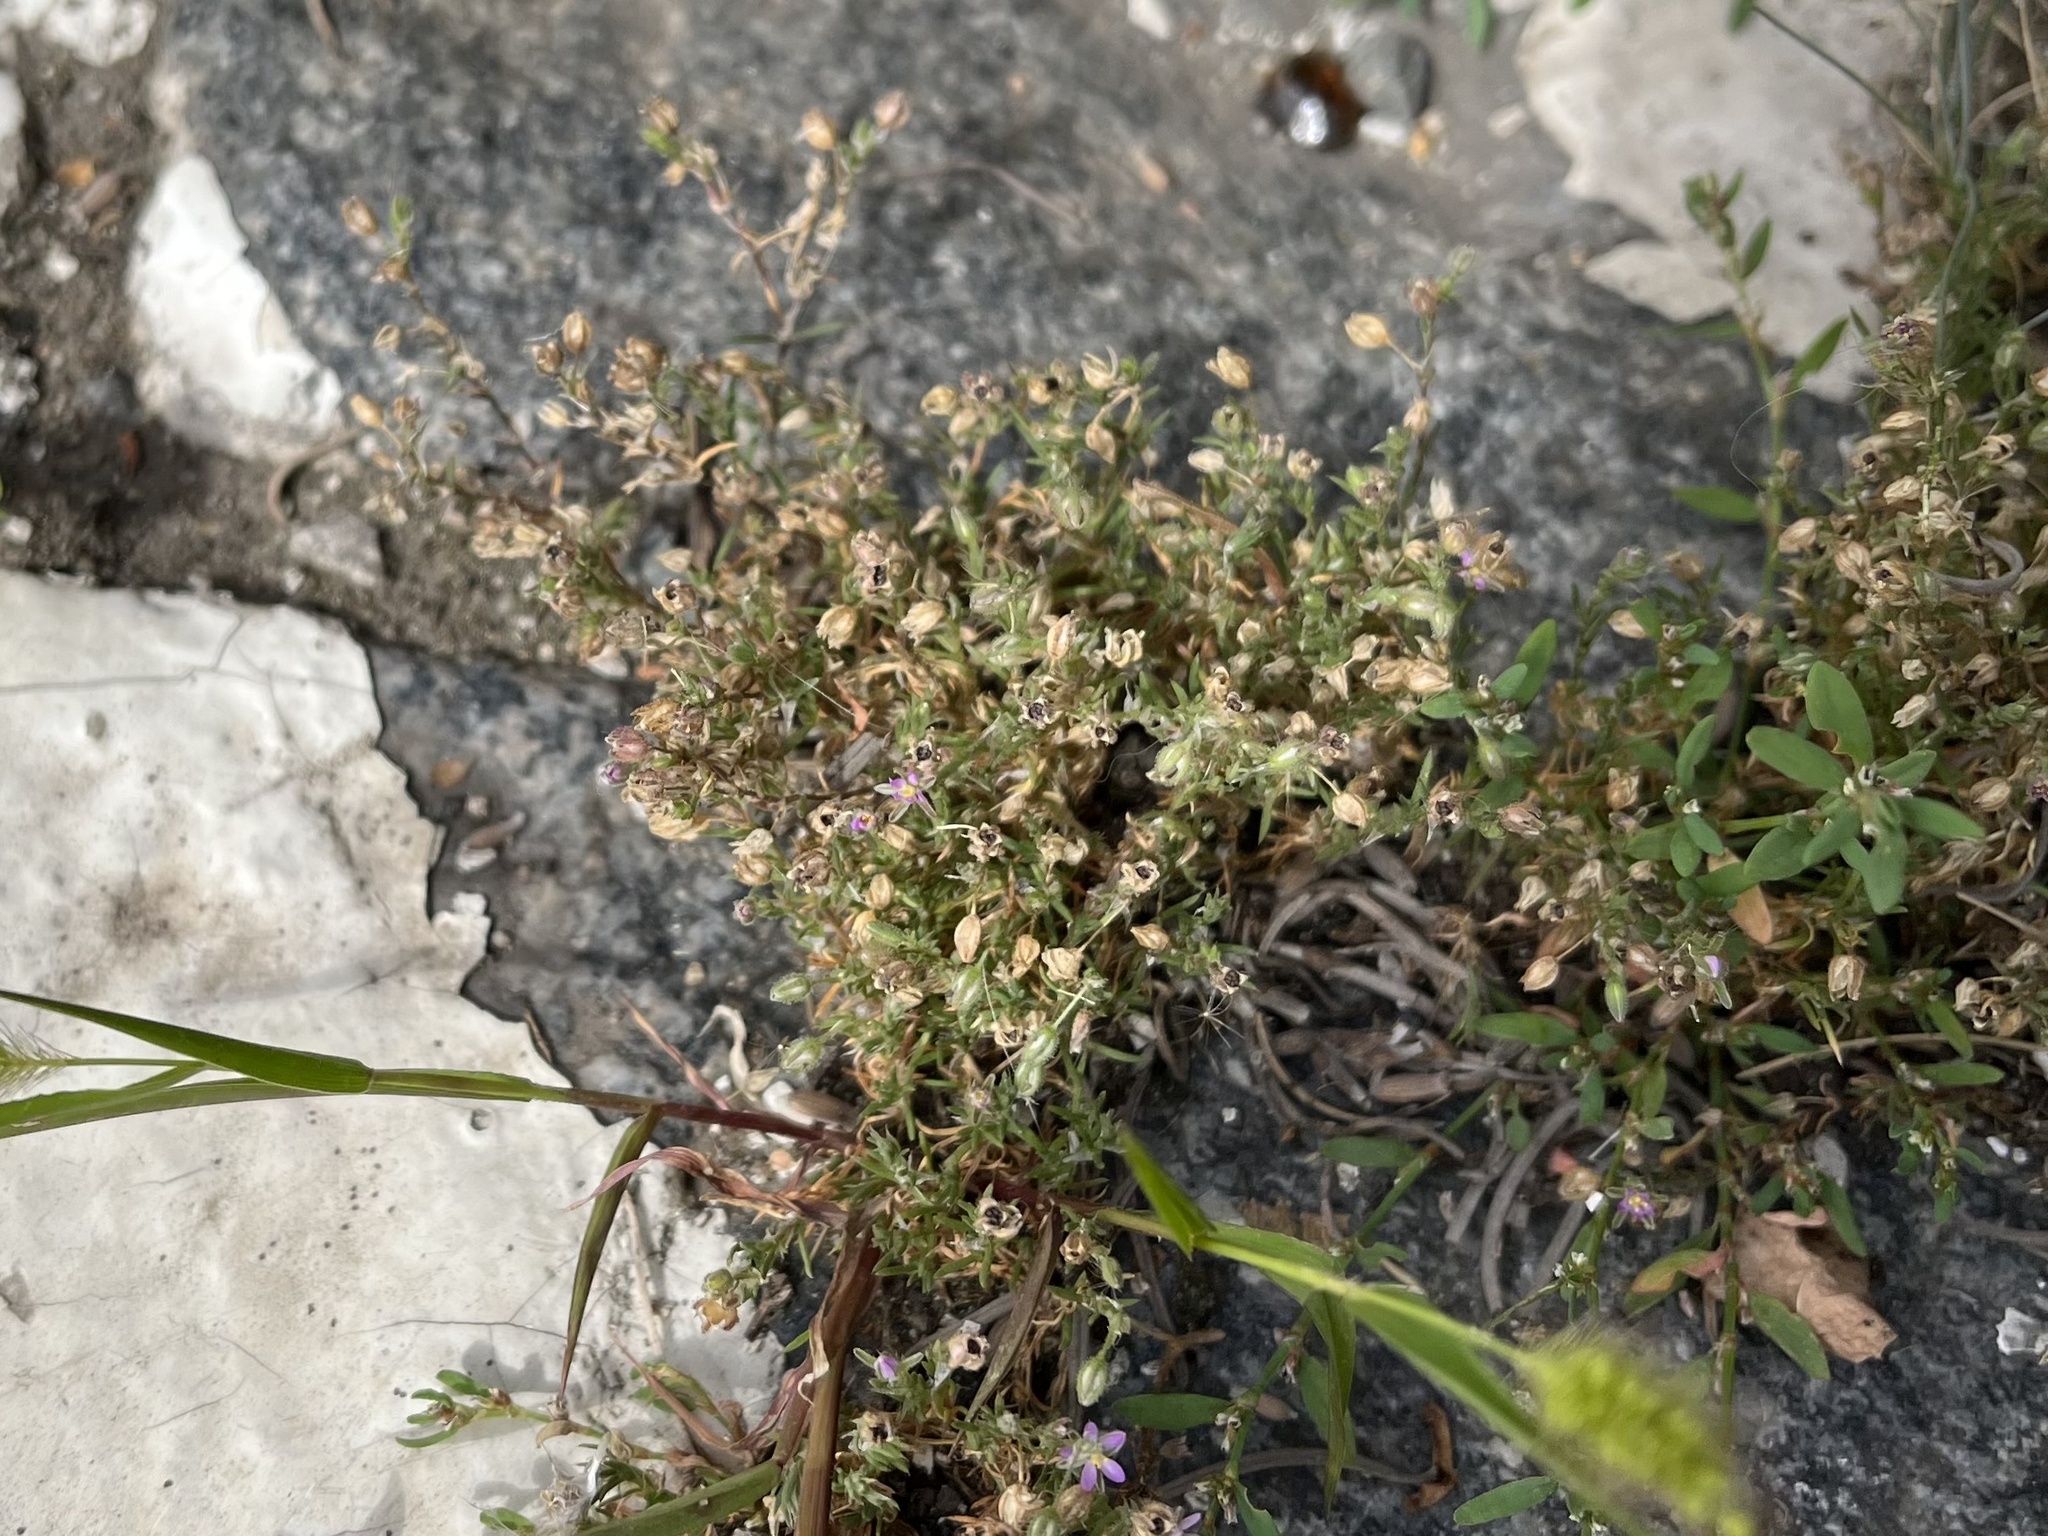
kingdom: Plantae
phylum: Tracheophyta
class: Magnoliopsida
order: Caryophyllales
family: Caryophyllaceae
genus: Spergularia
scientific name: Spergularia rubra
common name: Red sand-spurrey
